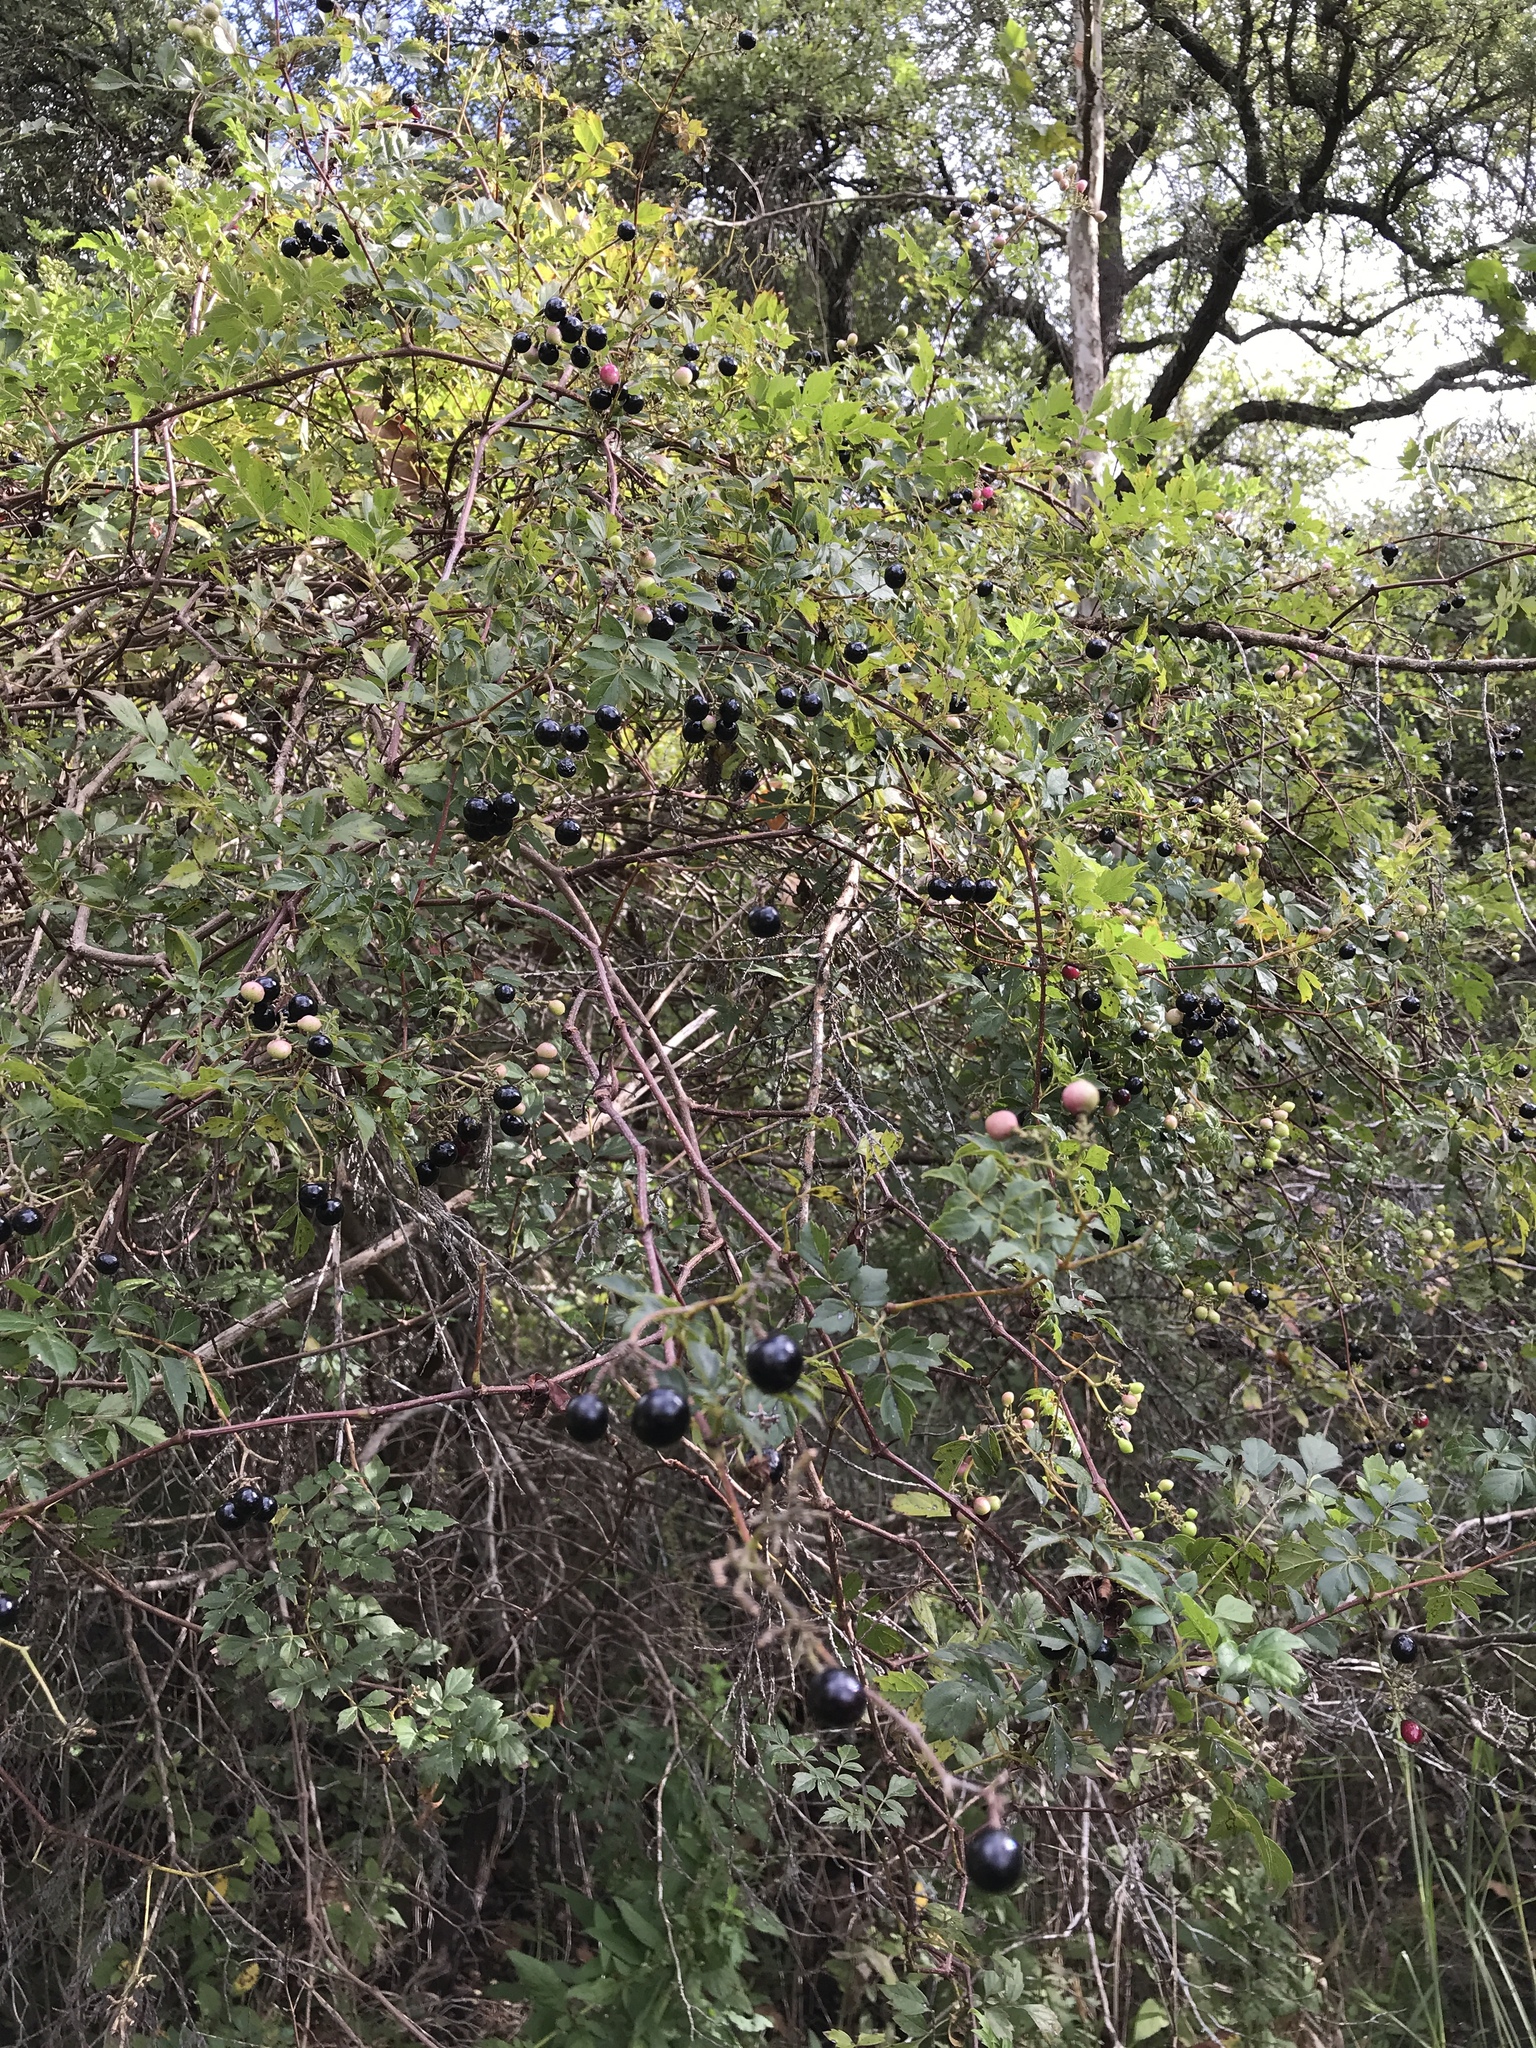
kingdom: Plantae
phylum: Tracheophyta
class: Magnoliopsida
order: Vitales
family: Vitaceae
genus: Nekemias
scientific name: Nekemias arborea
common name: Peppervine
